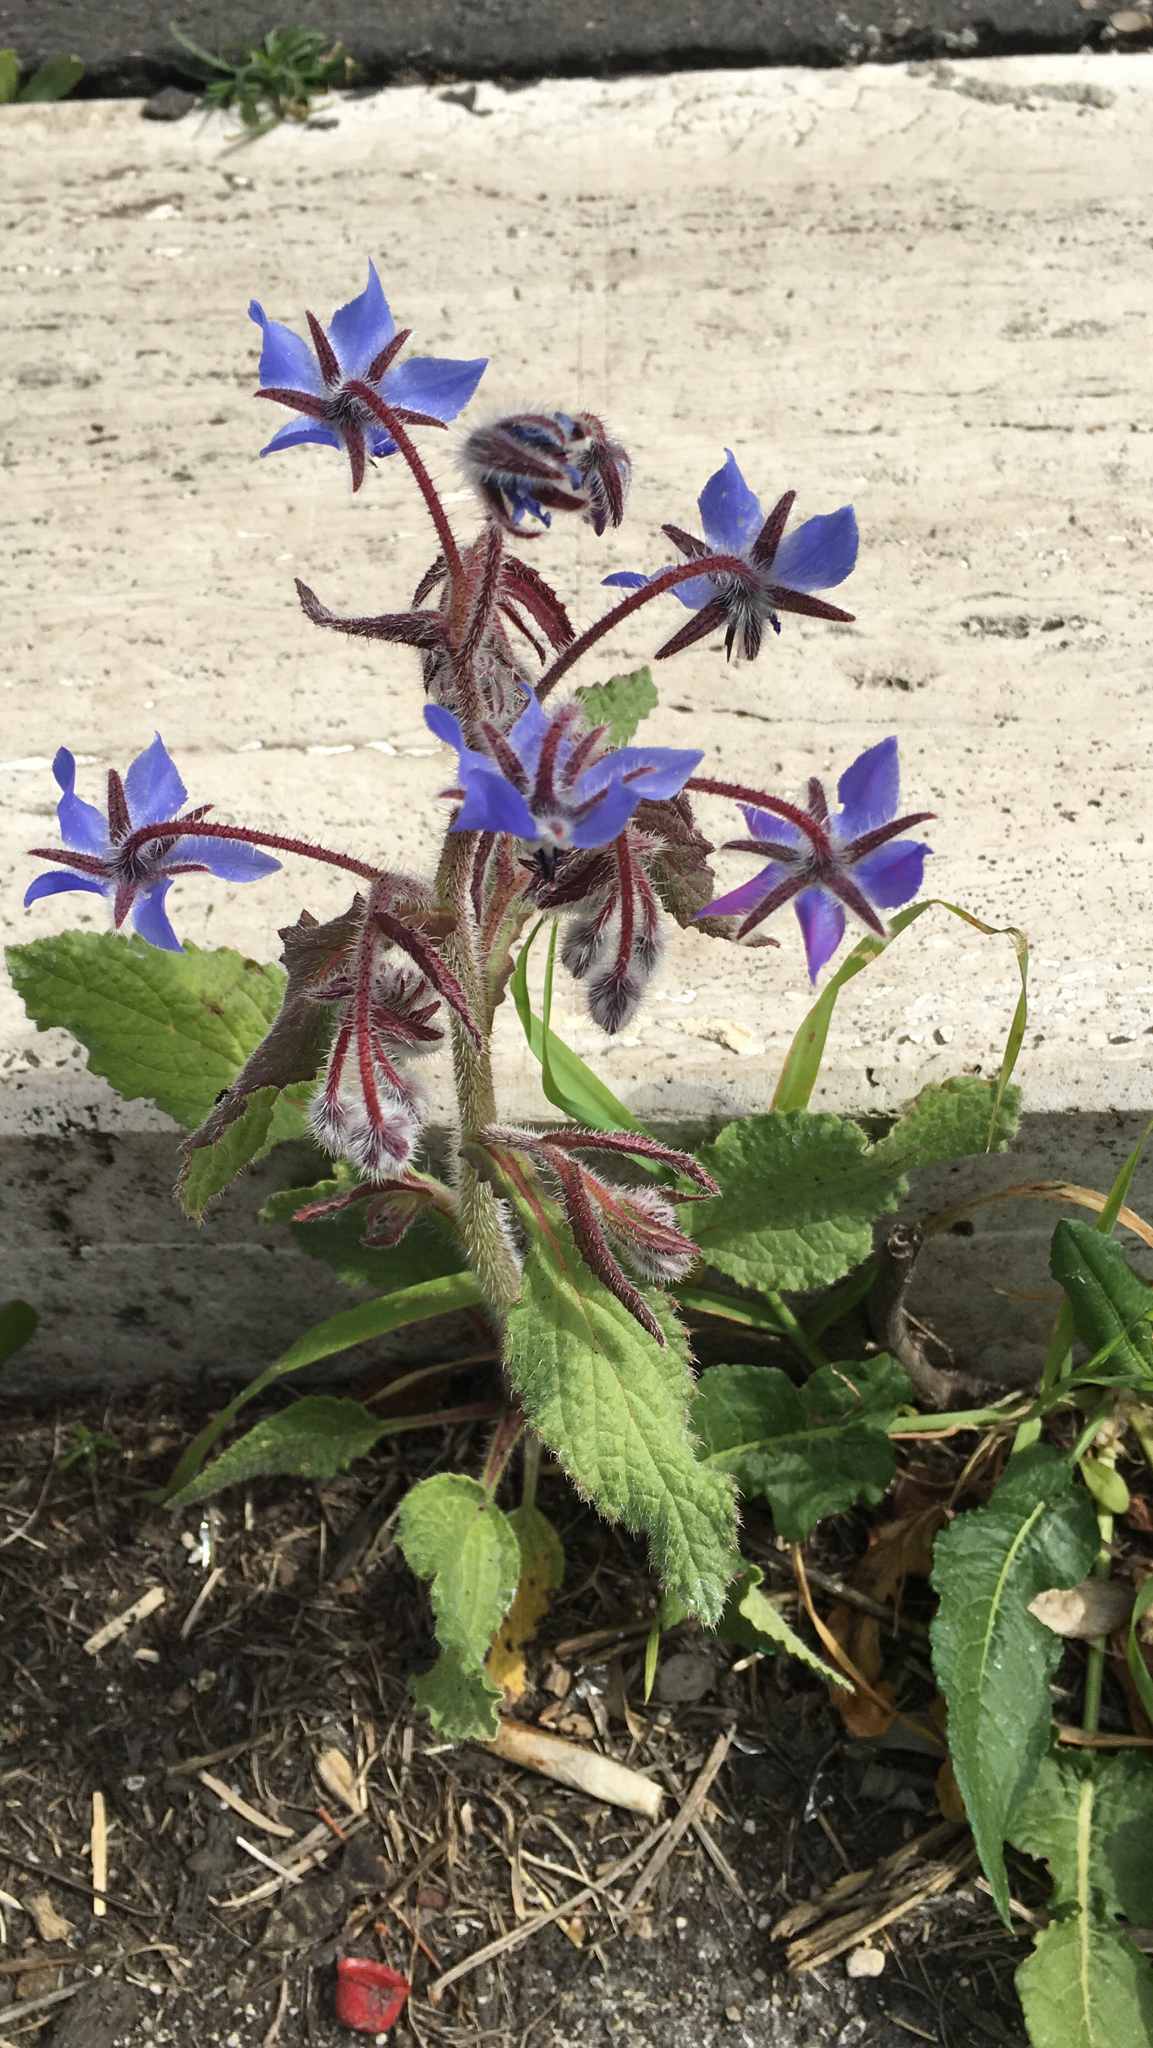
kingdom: Plantae
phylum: Tracheophyta
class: Magnoliopsida
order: Boraginales
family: Boraginaceae
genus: Borago
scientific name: Borago officinalis
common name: Borage
